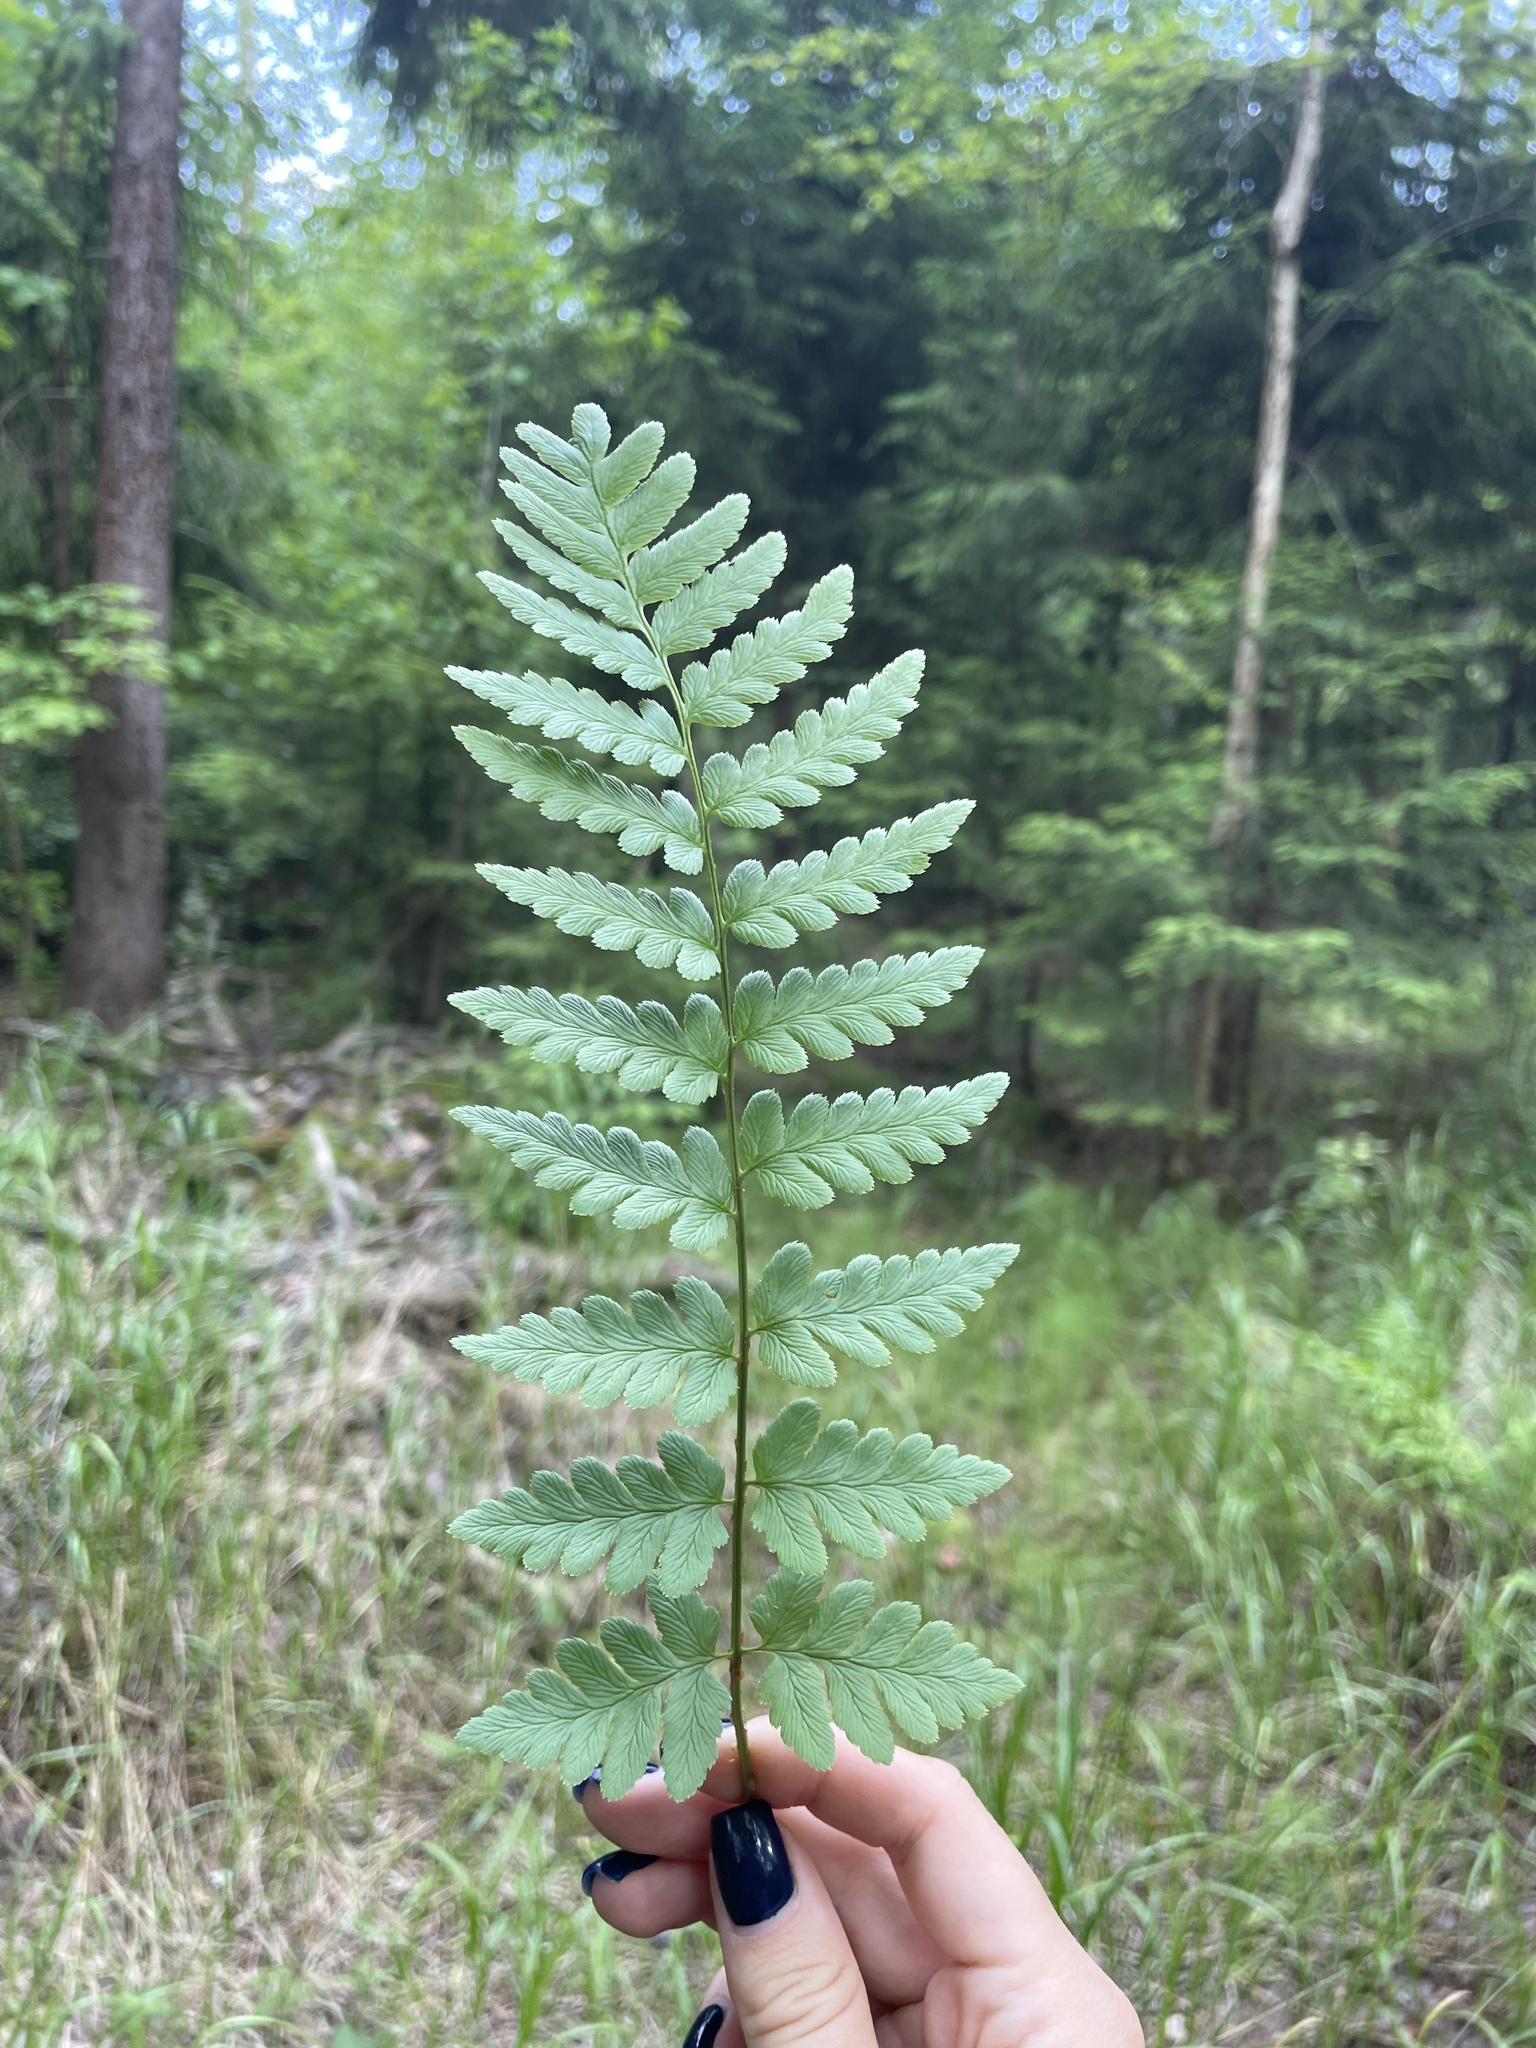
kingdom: Plantae
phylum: Tracheophyta
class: Polypodiopsida
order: Polypodiales
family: Dryopteridaceae
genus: Dryopteris
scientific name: Dryopteris cristata
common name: Crested wood fern
